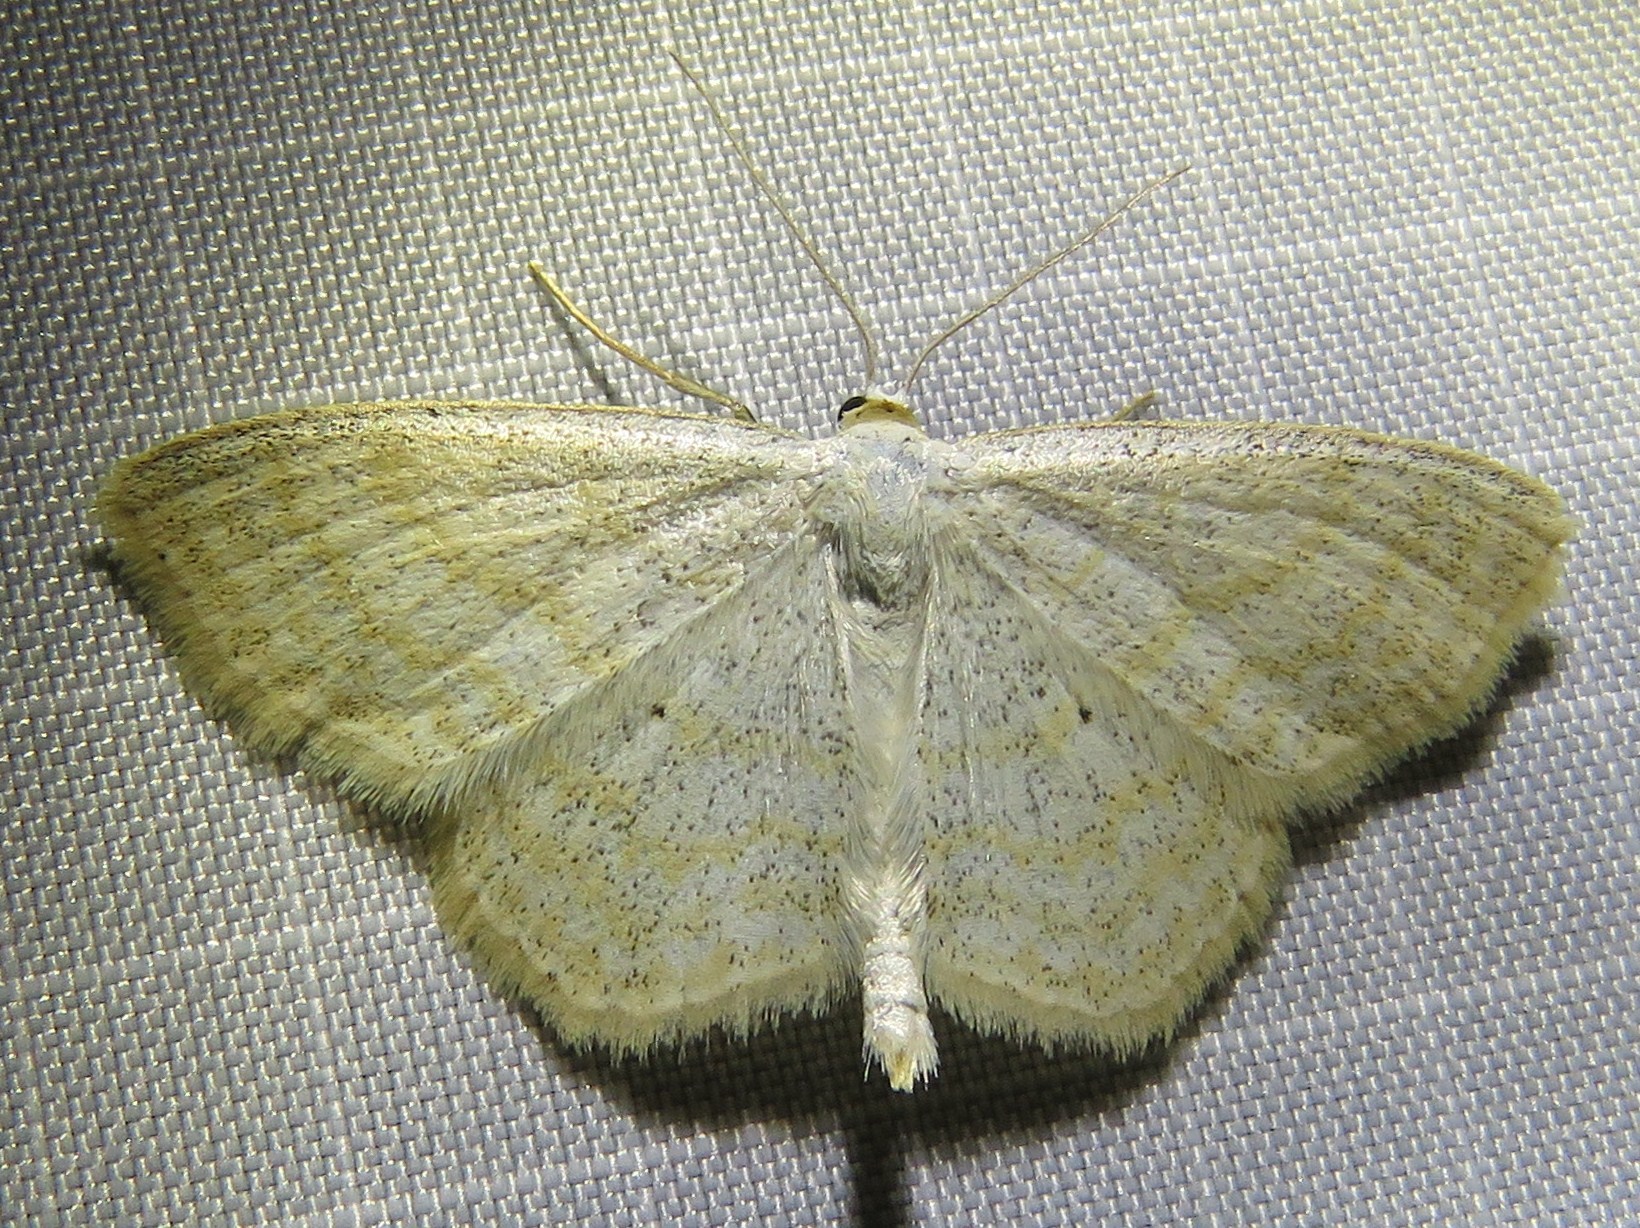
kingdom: Animalia
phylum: Arthropoda
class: Insecta
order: Lepidoptera
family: Geometridae
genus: Scopula
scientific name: Scopula immutata
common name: Lesser cream wave
